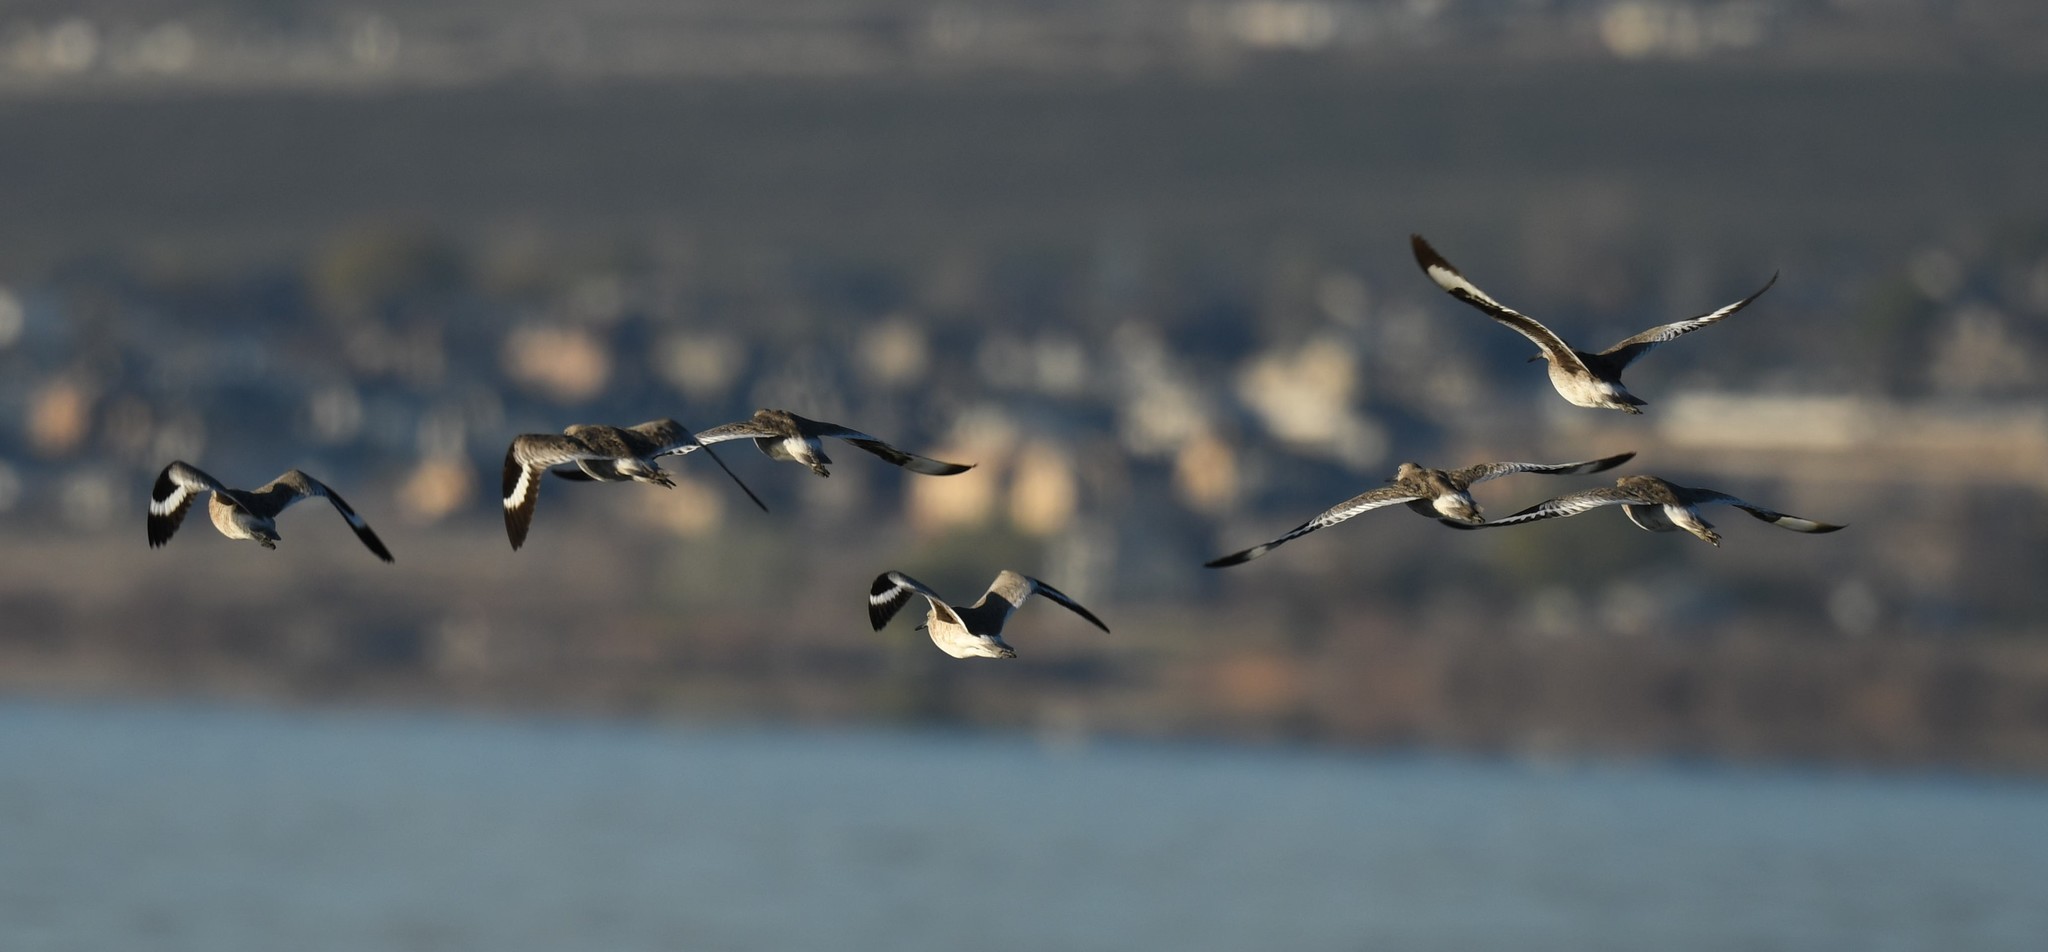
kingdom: Animalia
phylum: Chordata
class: Aves
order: Charadriiformes
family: Scolopacidae
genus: Tringa
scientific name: Tringa semipalmata
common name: Willet
